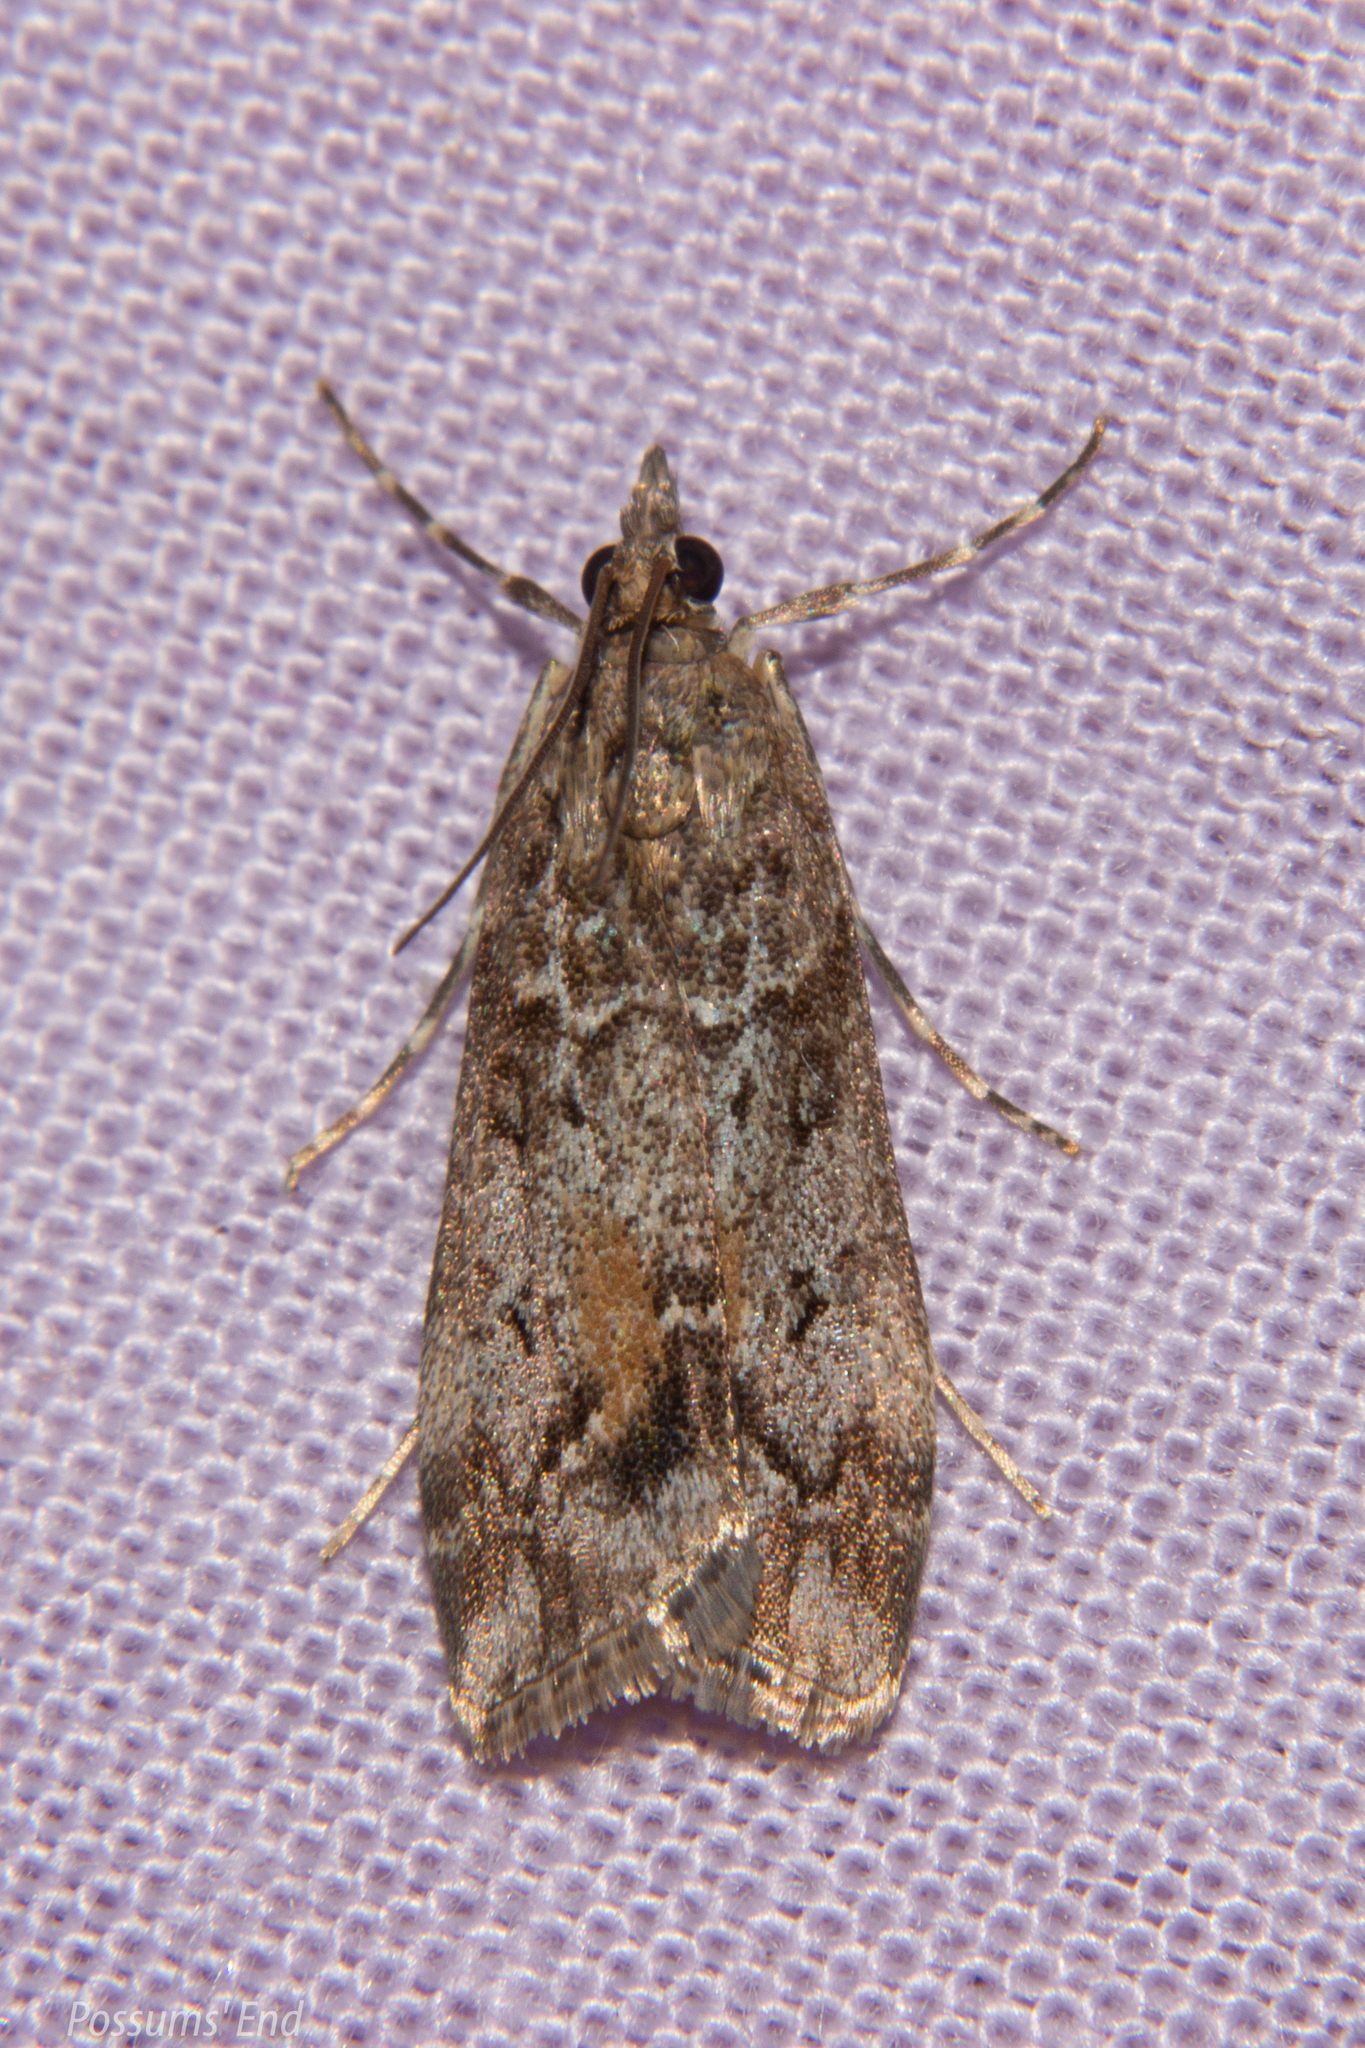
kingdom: Animalia
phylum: Arthropoda
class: Insecta
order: Lepidoptera
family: Crambidae
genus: Eudonia
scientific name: Eudonia submarginalis
